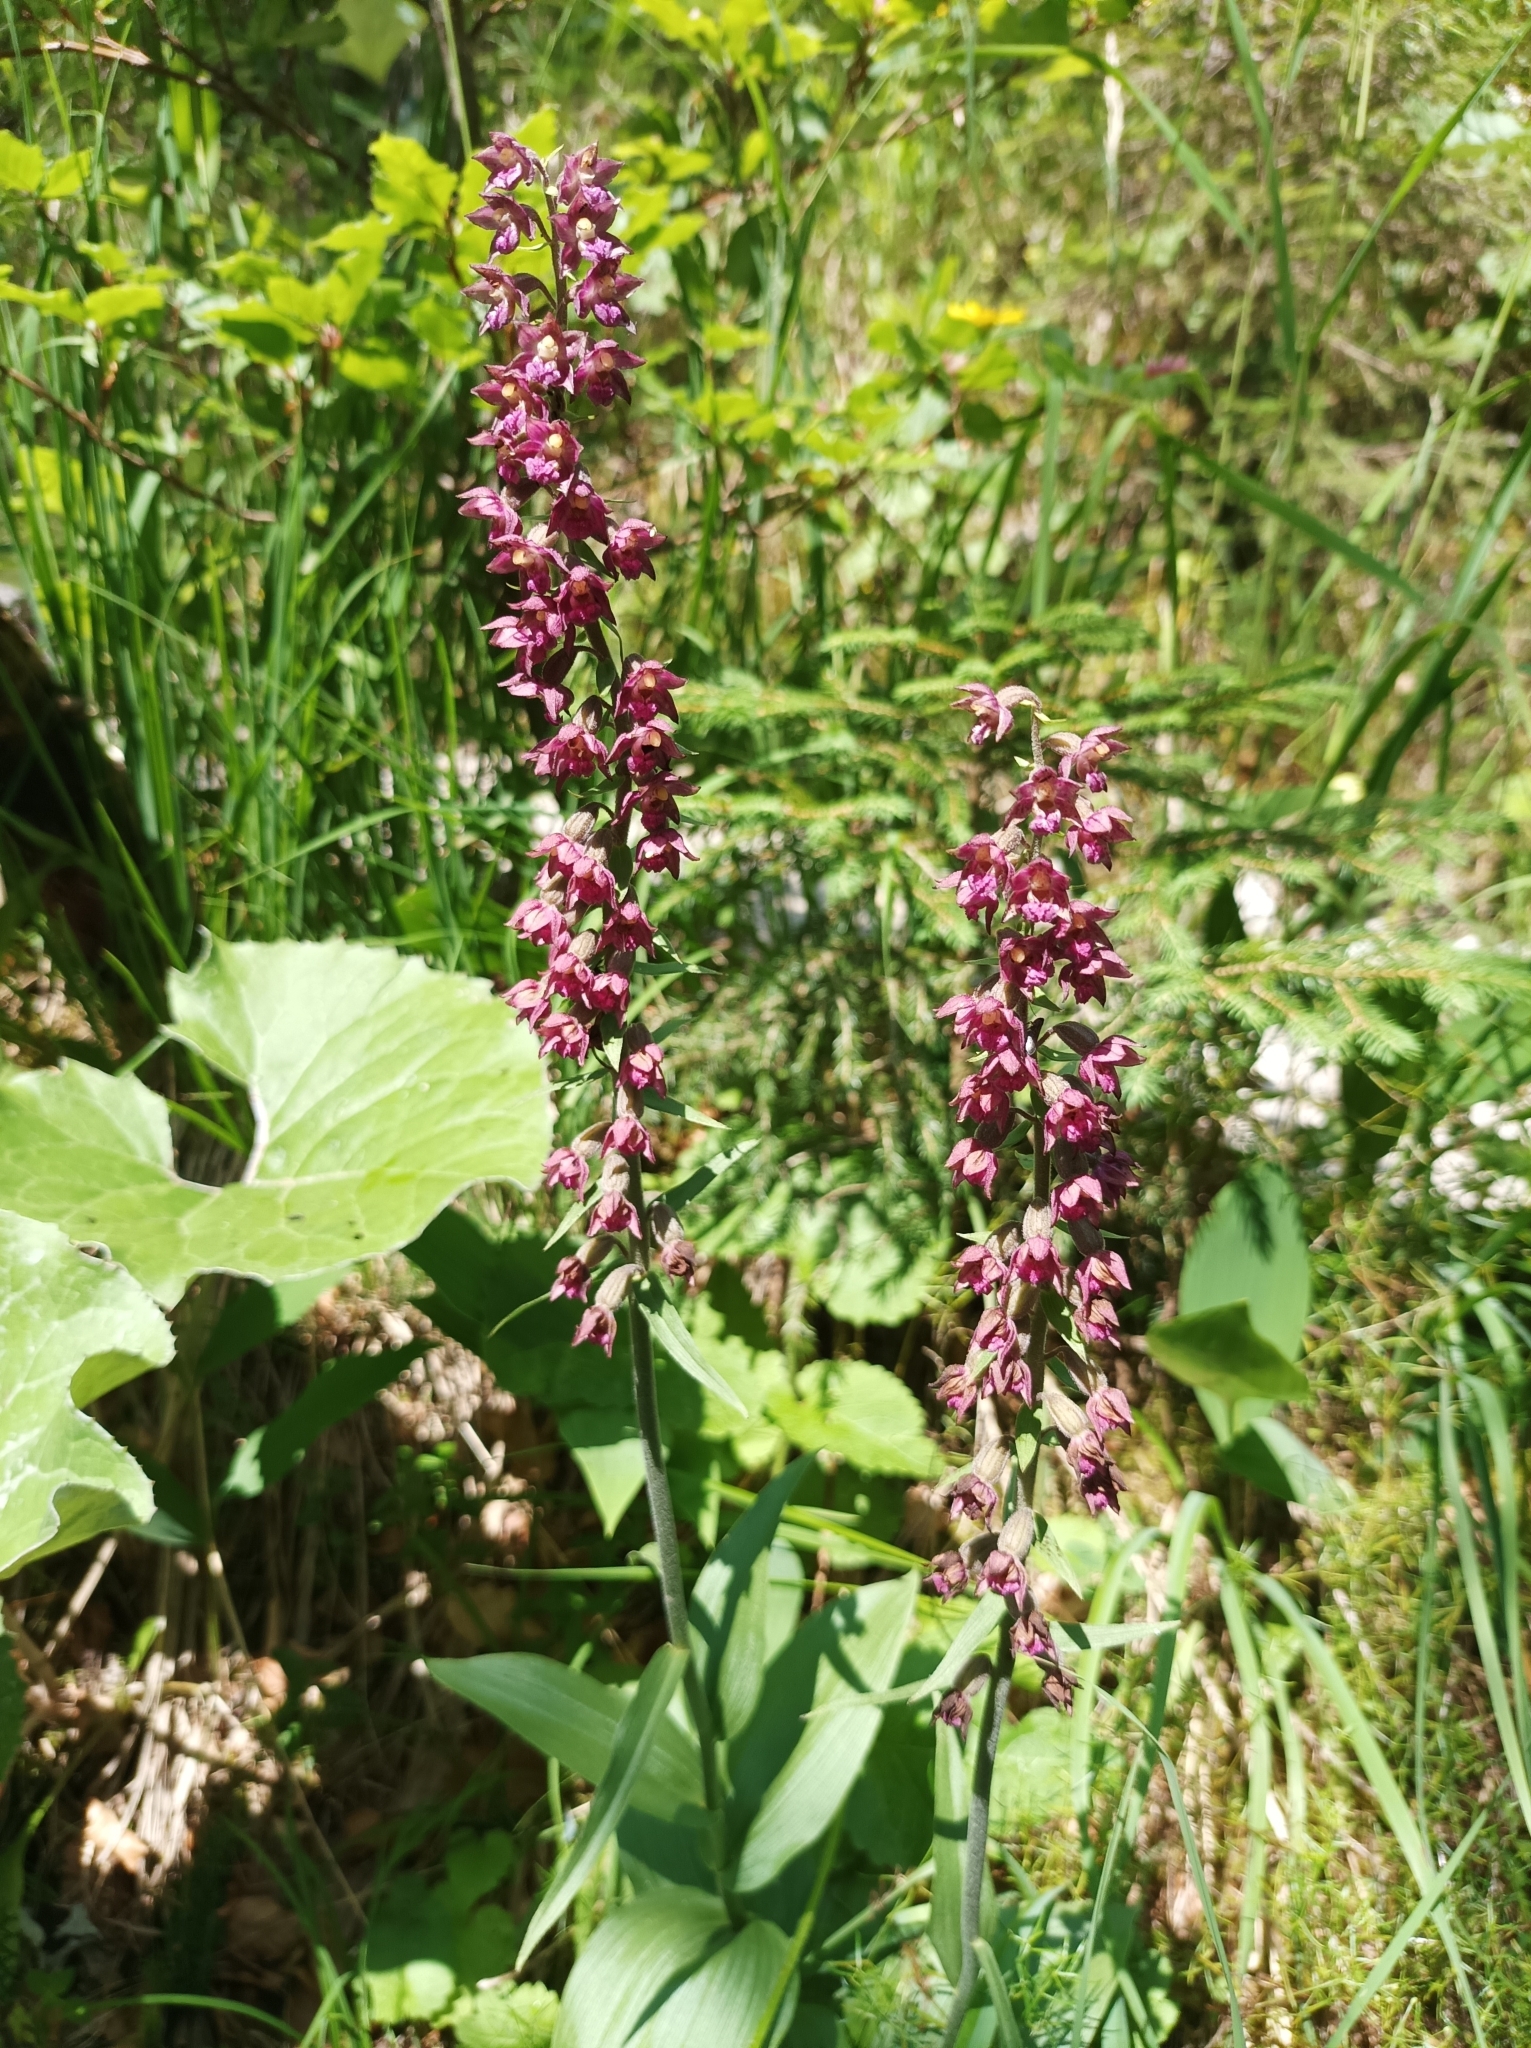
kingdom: Plantae
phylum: Tracheophyta
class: Liliopsida
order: Asparagales
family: Orchidaceae
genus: Epipactis
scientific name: Epipactis atrorubens
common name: Dark-red helleborine
